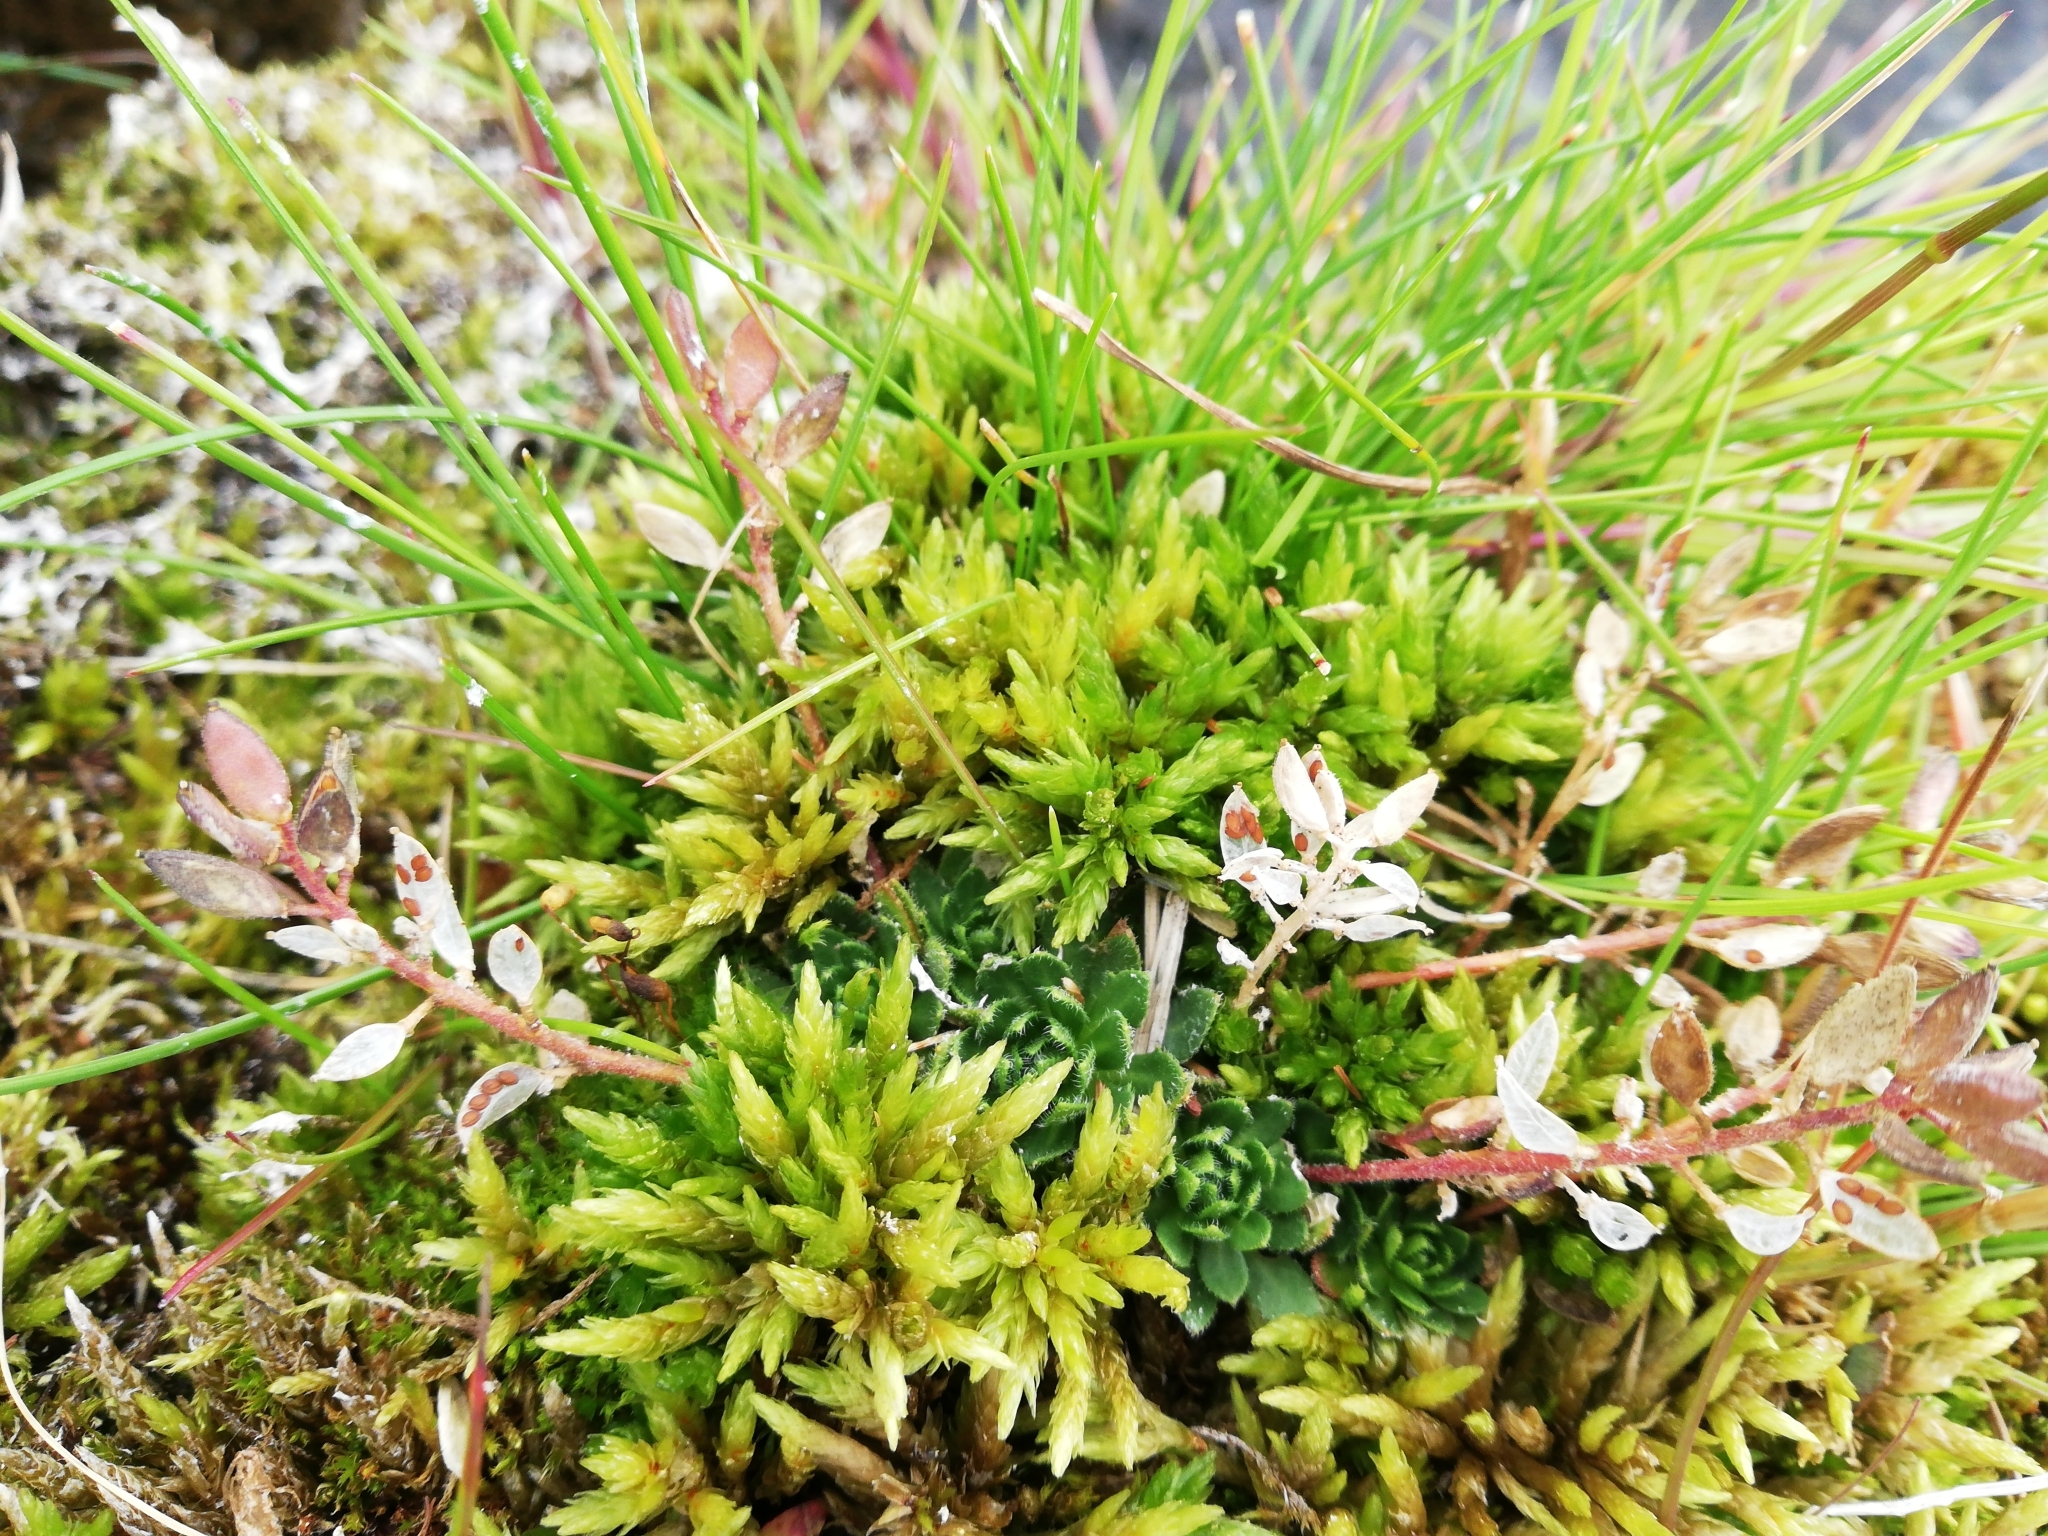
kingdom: Plantae
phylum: Bryophyta
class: Bryopsida
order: Hypnales
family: Climaciaceae
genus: Climacium
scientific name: Climacium dendroides
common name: Northern tree moss
